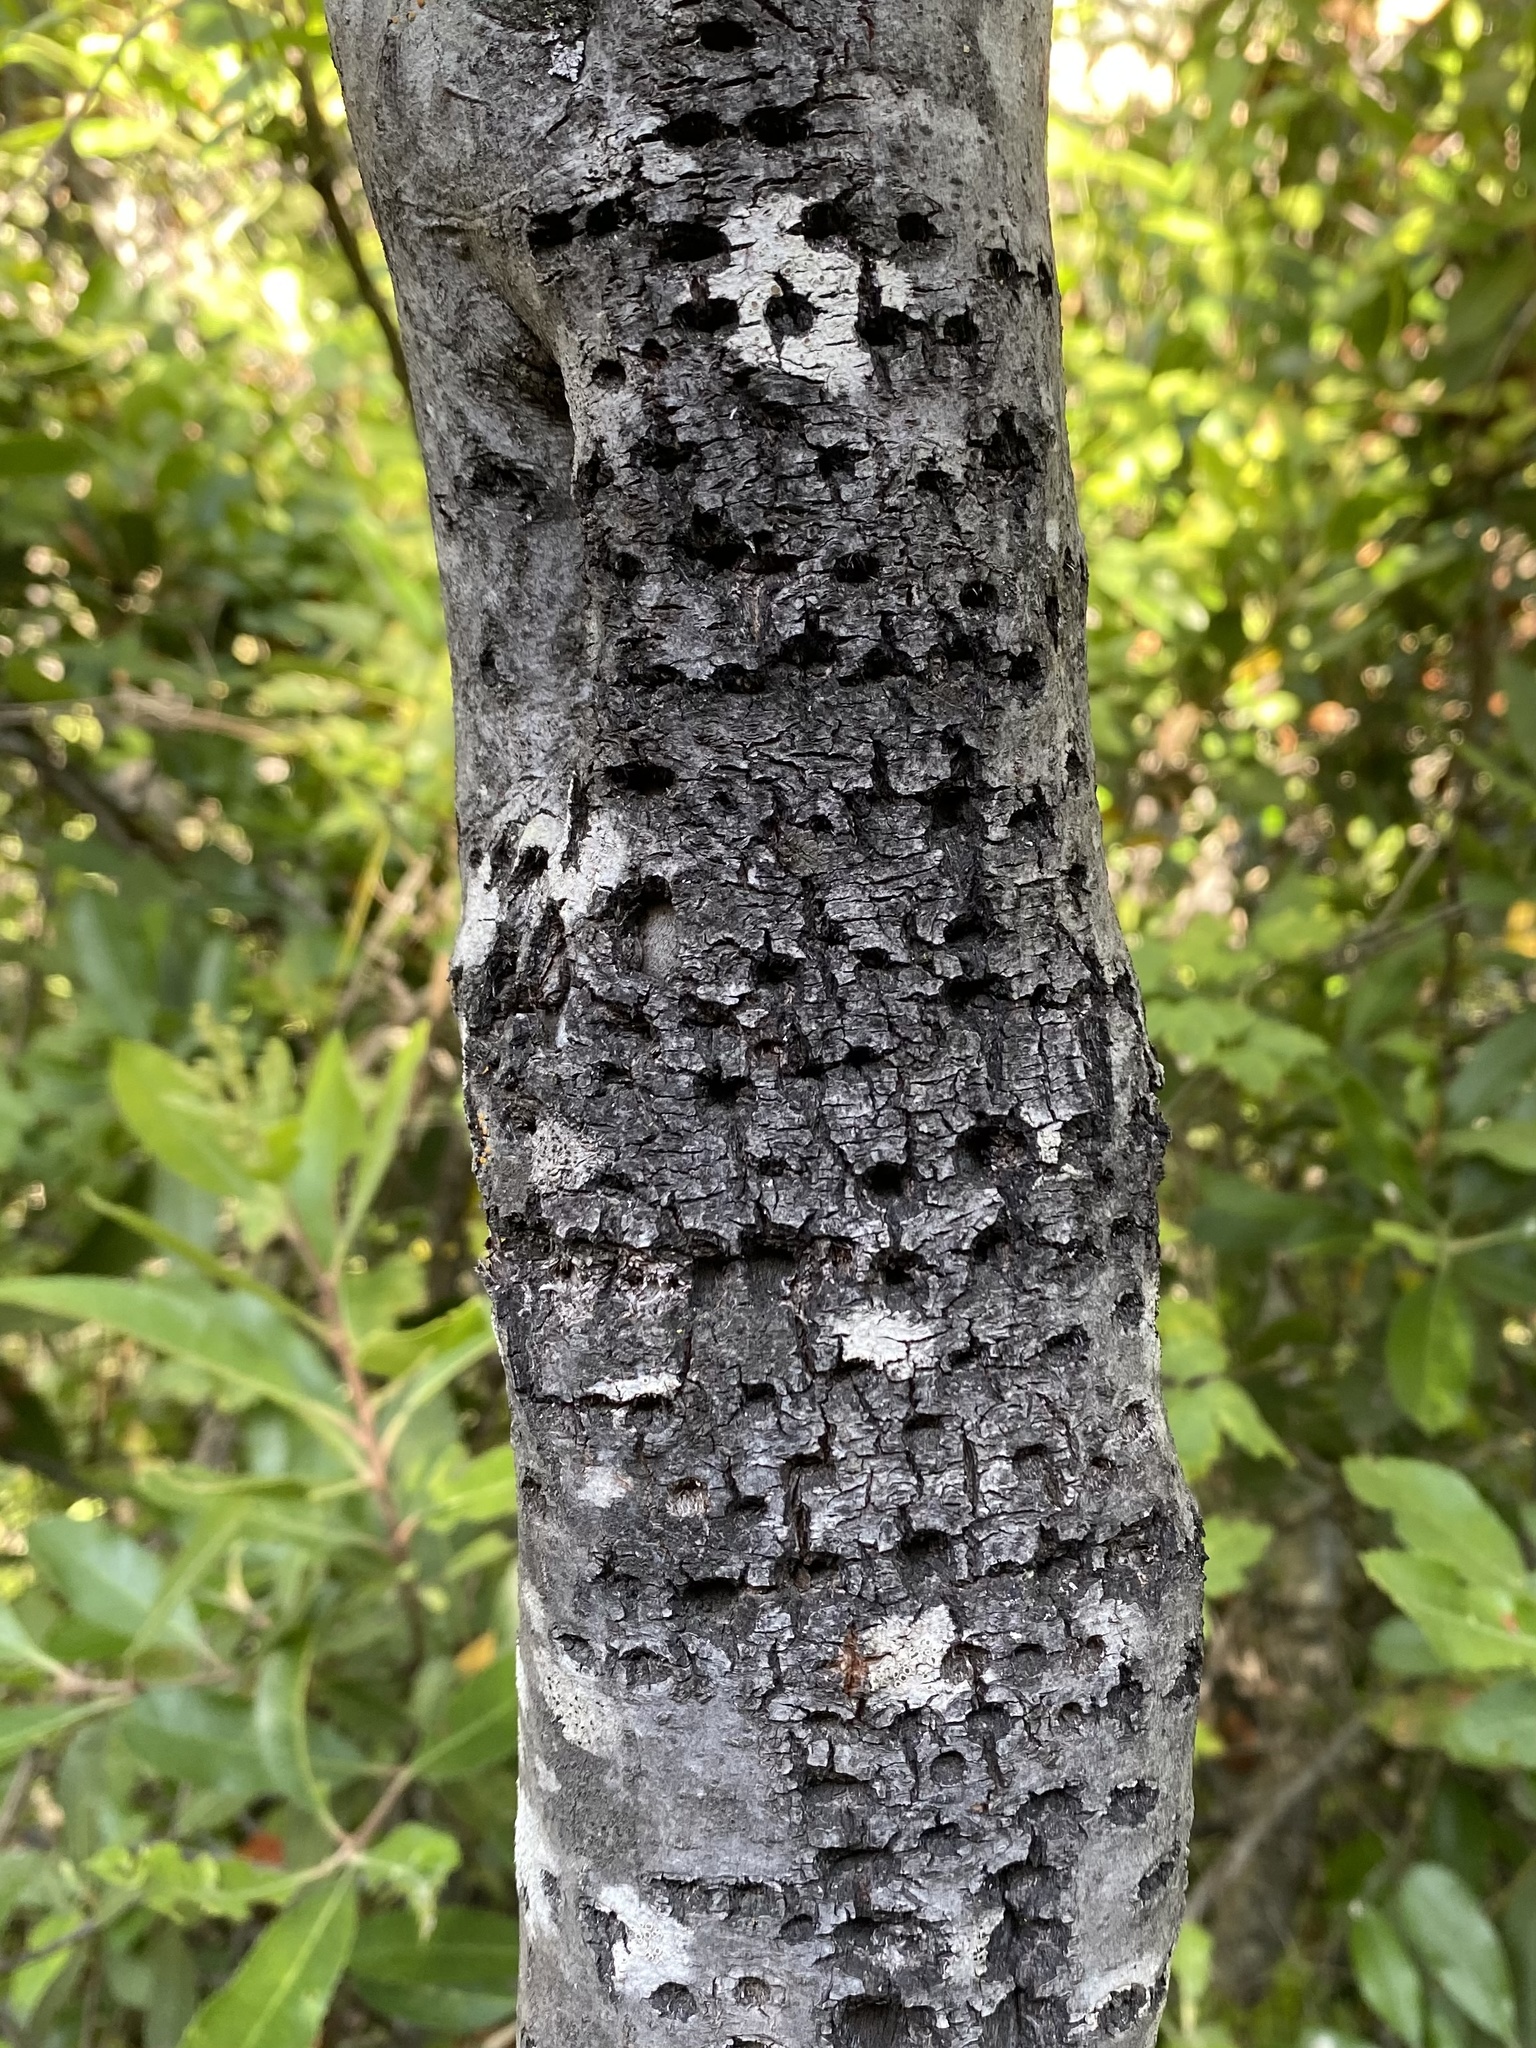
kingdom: Animalia
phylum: Chordata
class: Aves
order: Piciformes
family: Picidae
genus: Sphyrapicus
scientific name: Sphyrapicus
